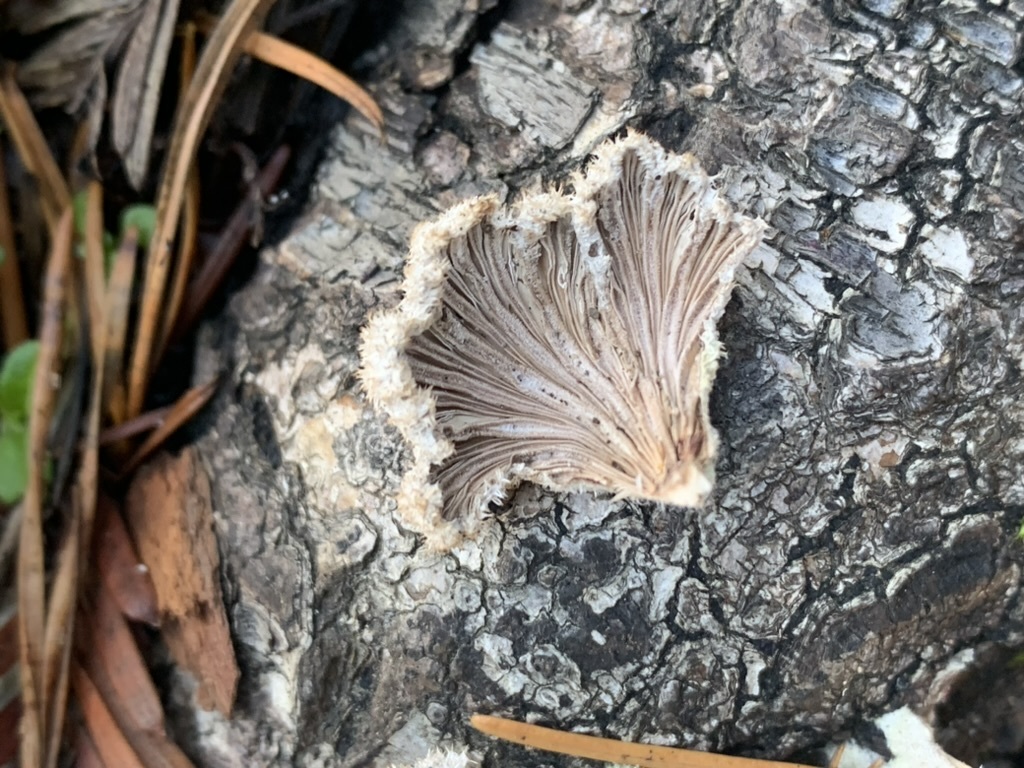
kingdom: Fungi
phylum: Basidiomycota
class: Agaricomycetes
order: Agaricales
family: Schizophyllaceae
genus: Schizophyllum
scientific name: Schizophyllum commune
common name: Common porecrust
